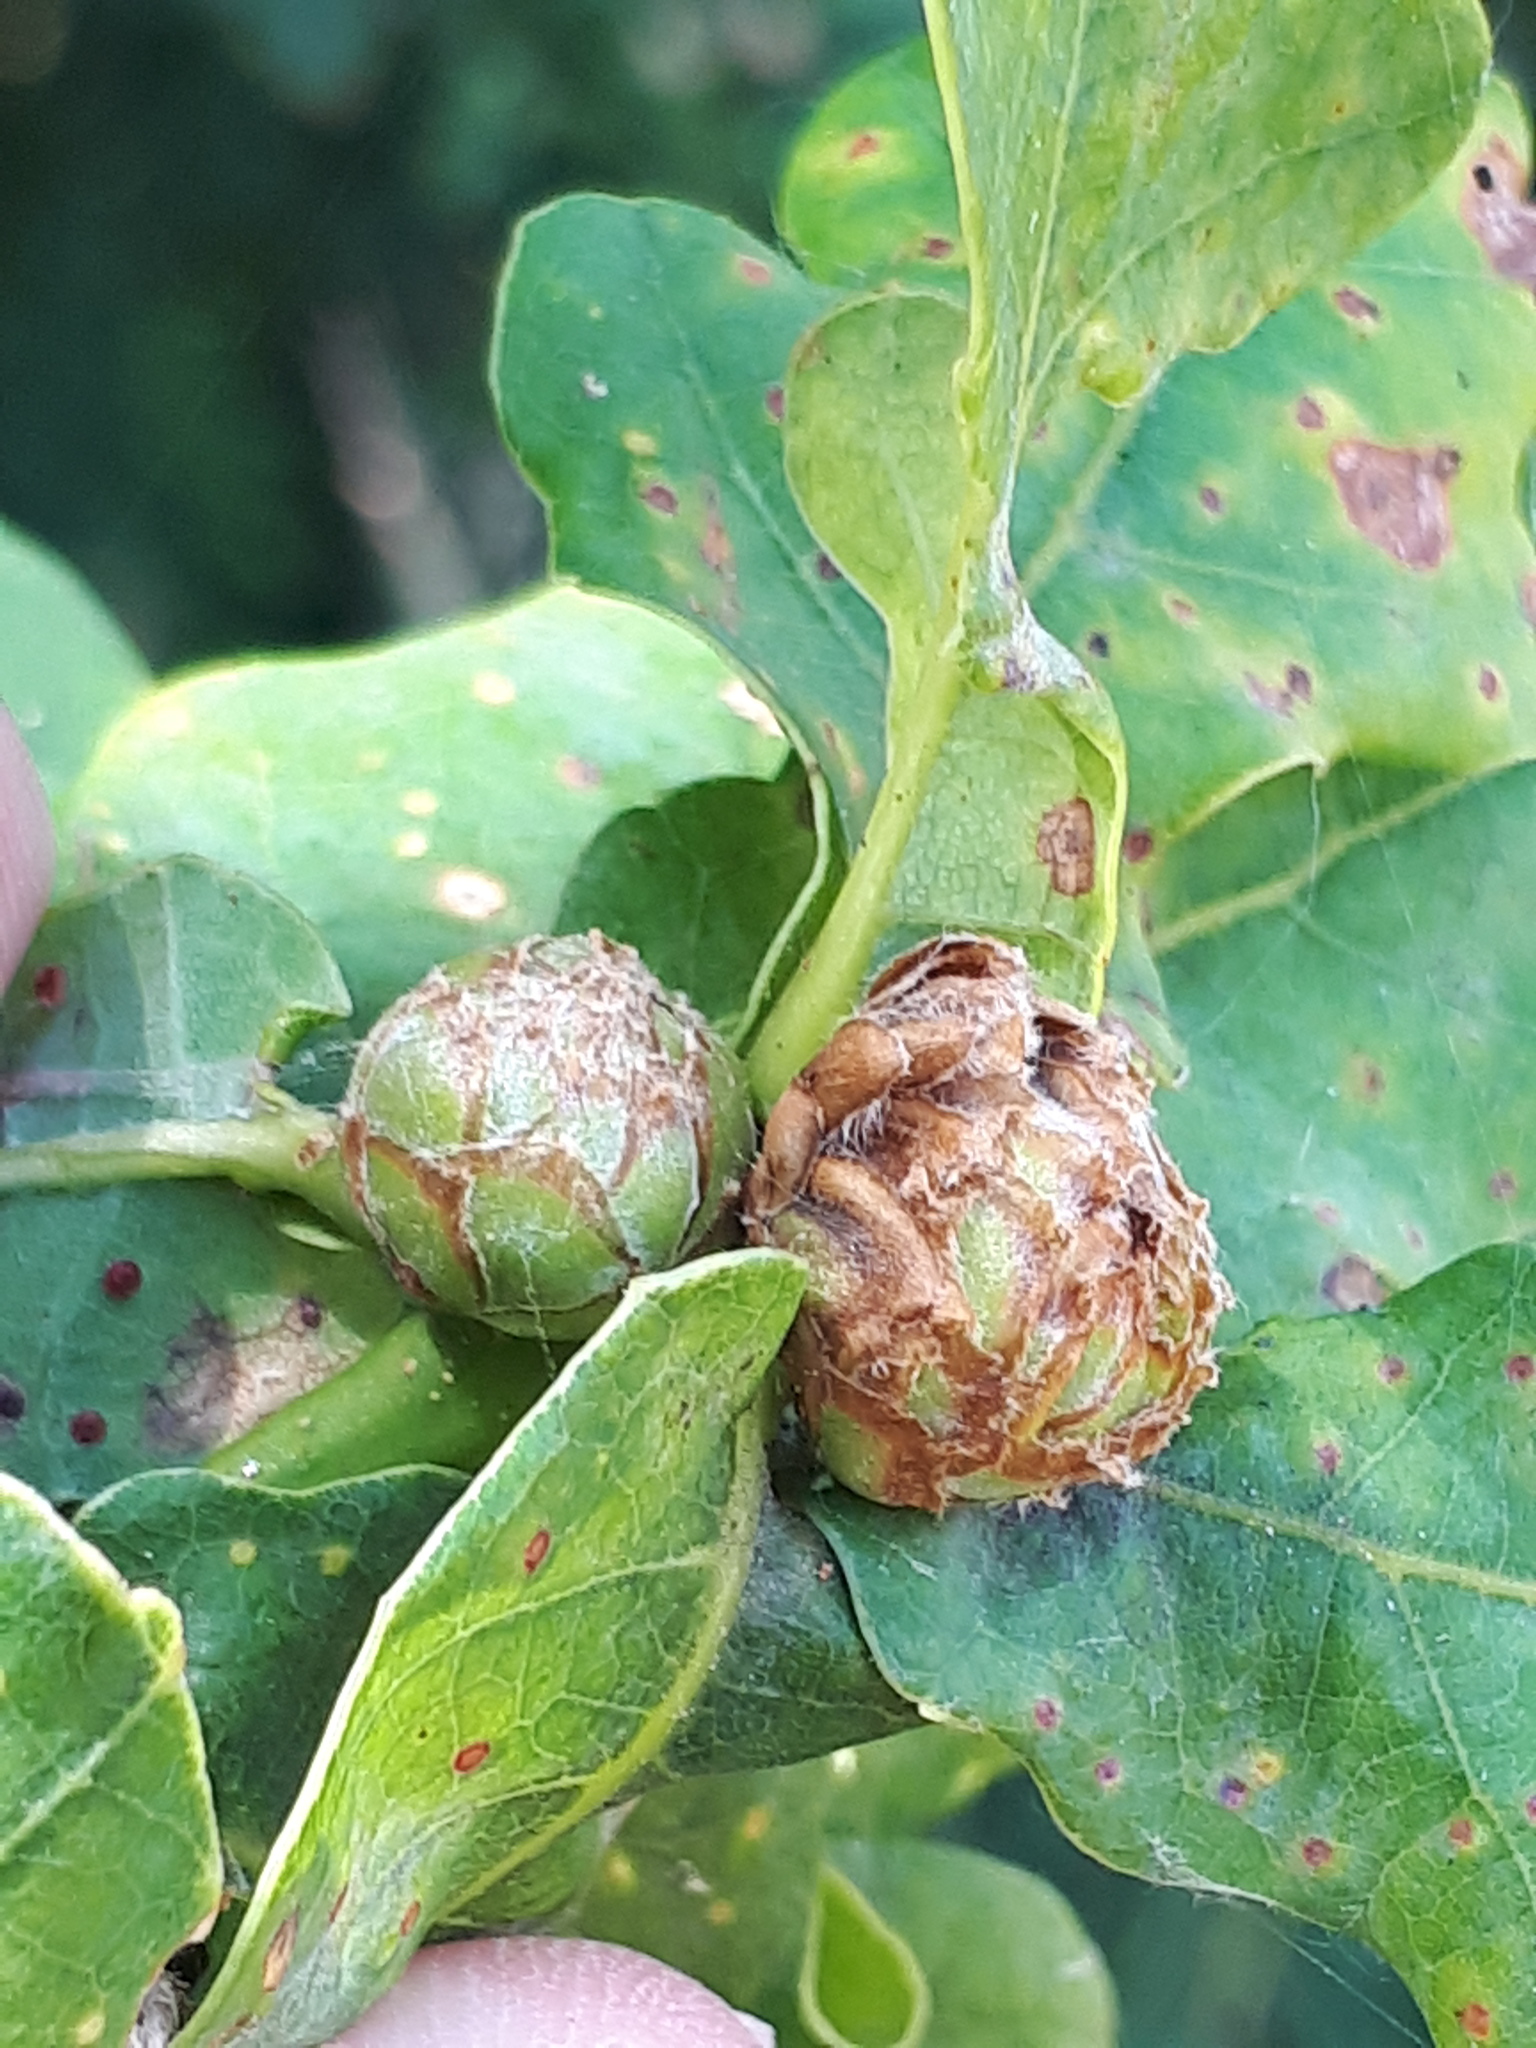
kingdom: Animalia
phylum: Arthropoda
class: Insecta
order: Hymenoptera
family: Cynipidae
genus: Andricus
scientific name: Andricus foecundatrix
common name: Artichoke gall
